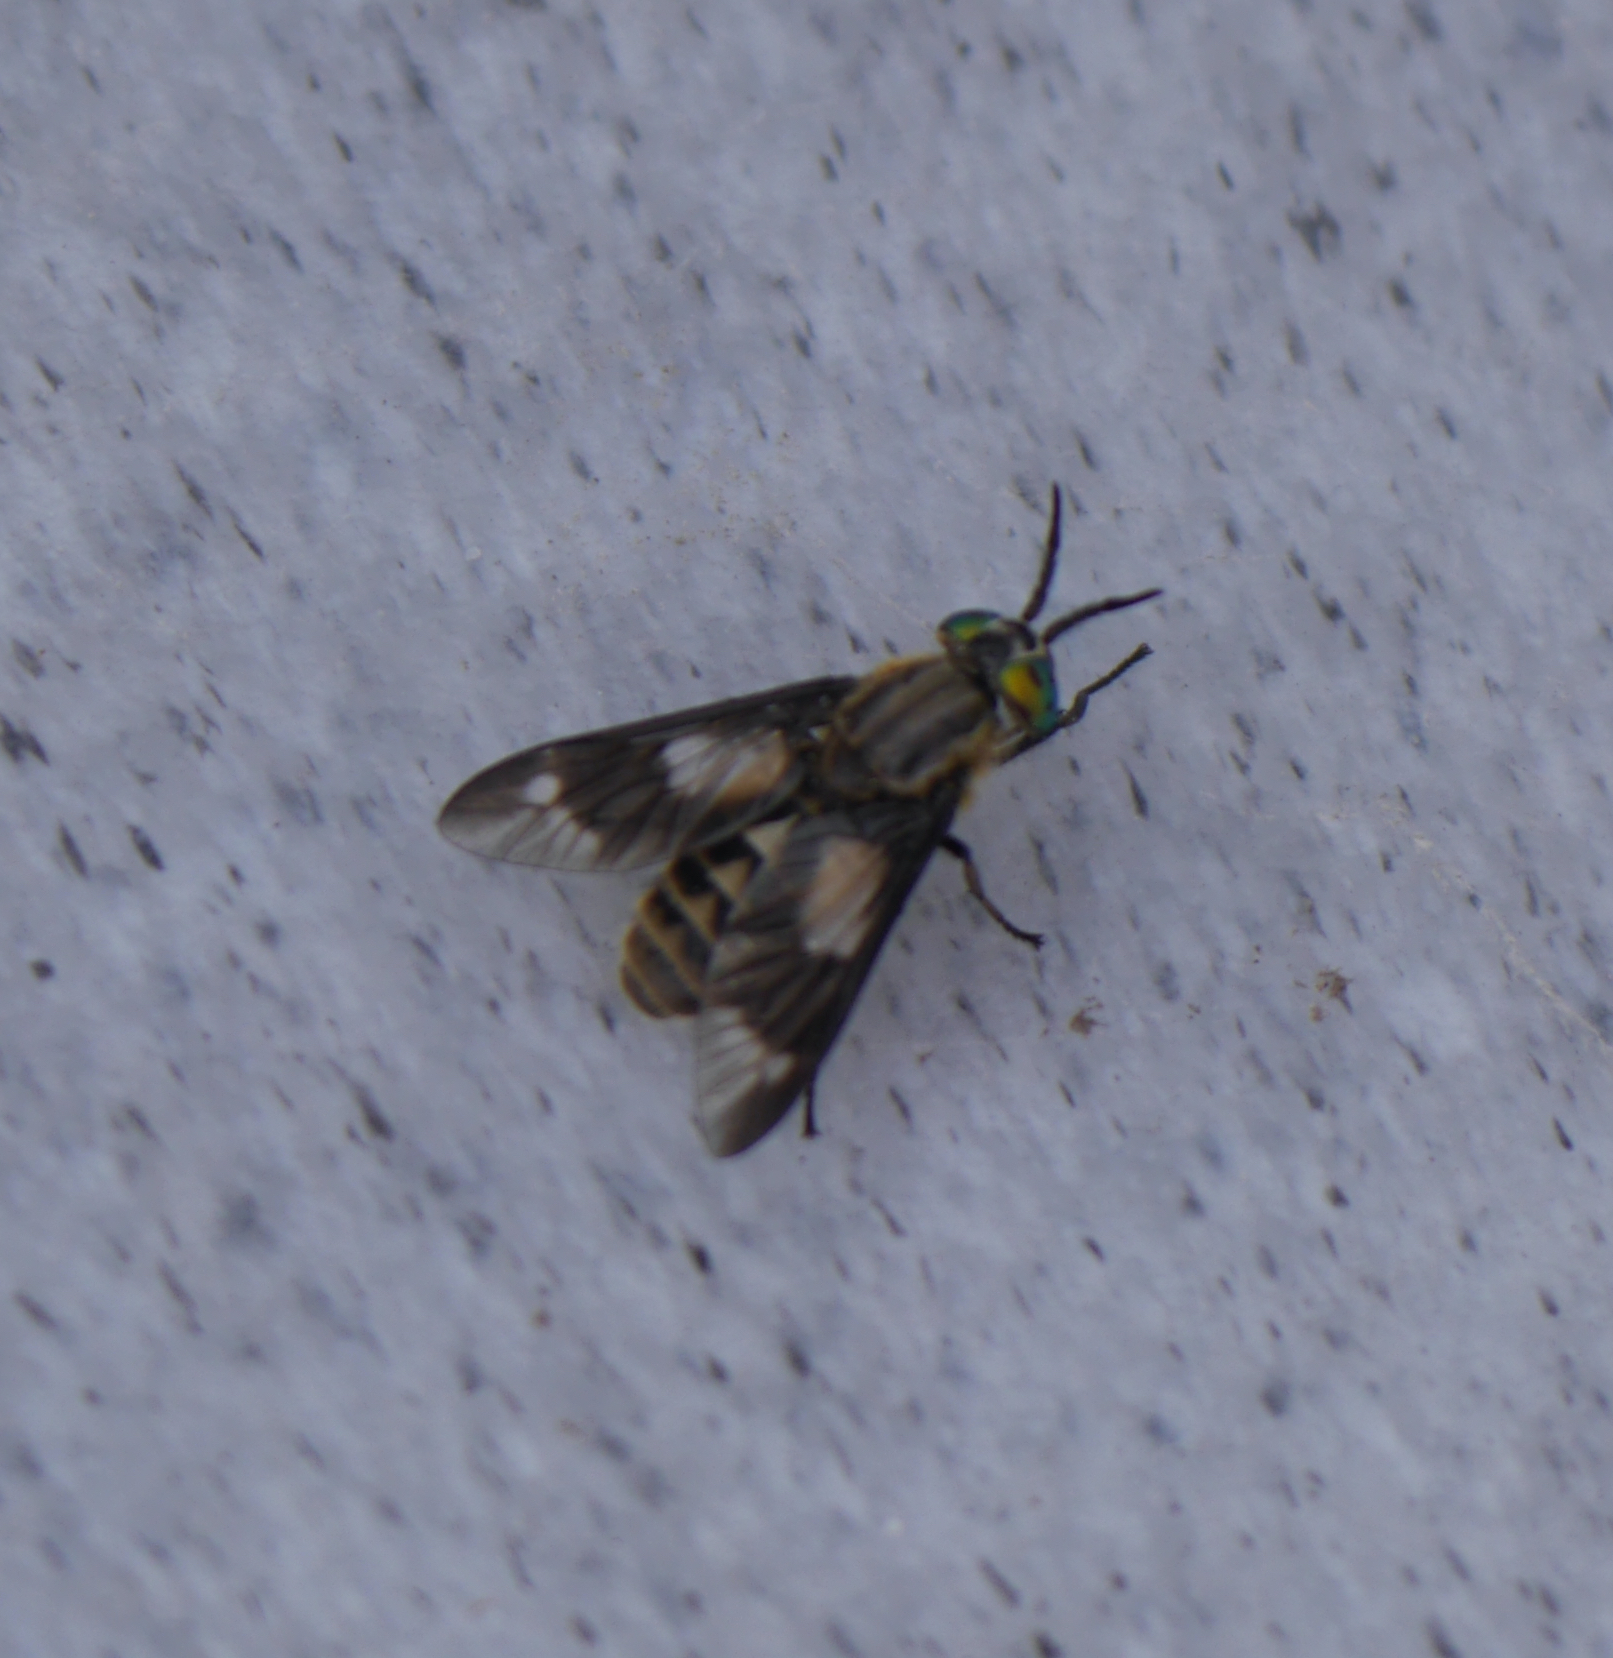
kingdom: Animalia
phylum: Arthropoda
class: Insecta
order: Diptera
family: Tabanidae
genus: Chrysops
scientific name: Chrysops relictus
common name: Twin-lobed deerfly
